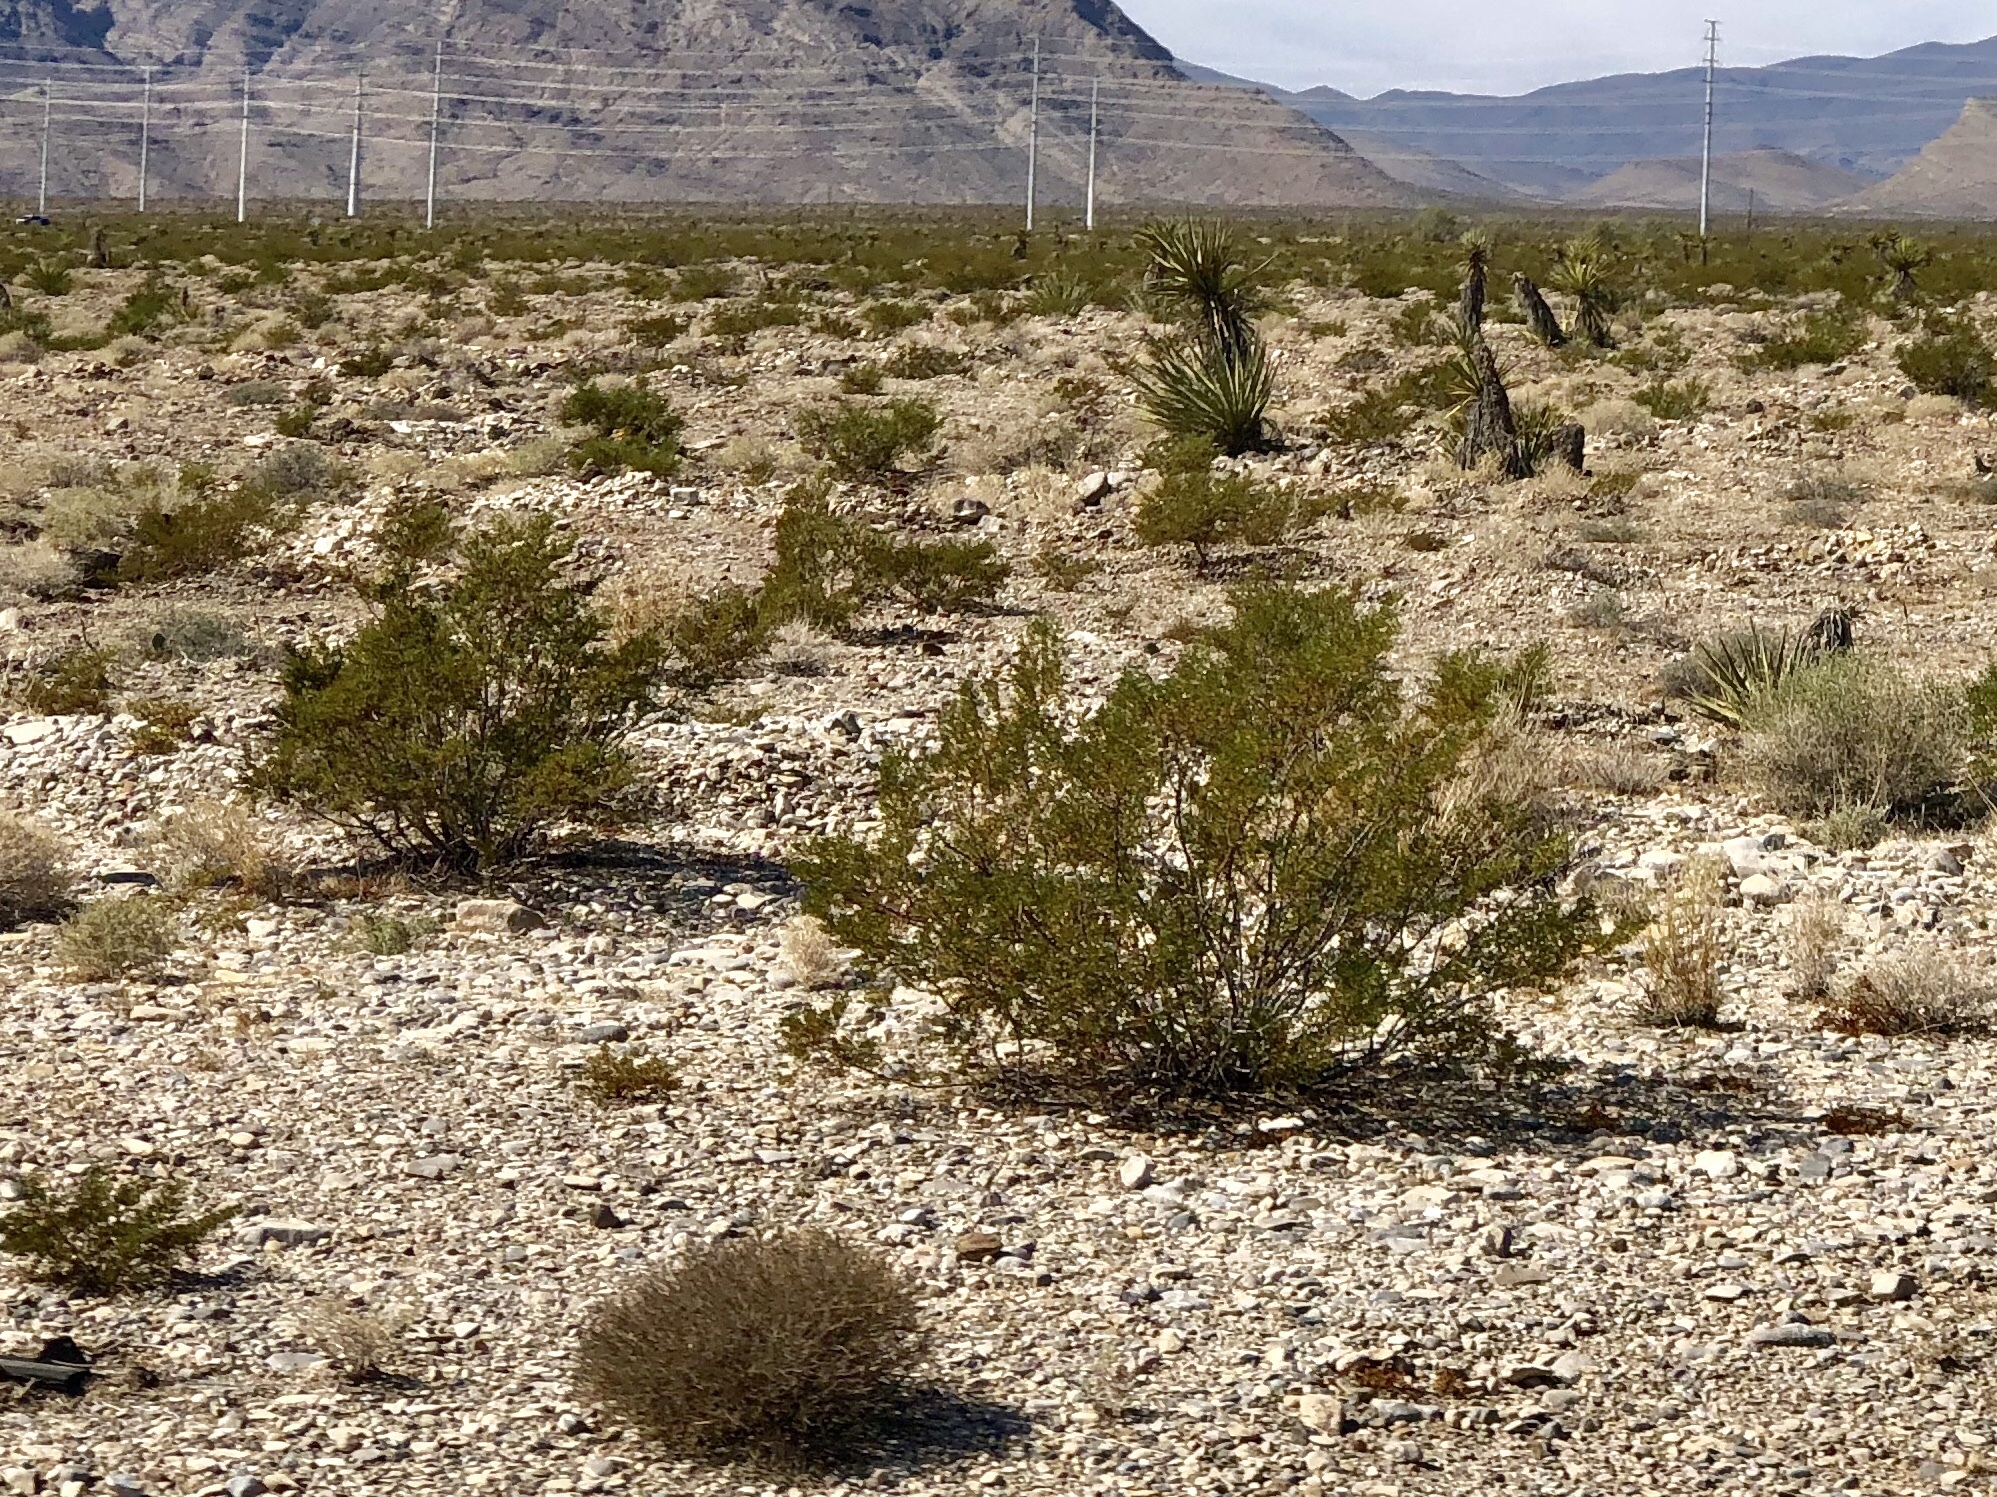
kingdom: Plantae
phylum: Tracheophyta
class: Magnoliopsida
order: Zygophyllales
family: Zygophyllaceae
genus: Larrea
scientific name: Larrea tridentata
